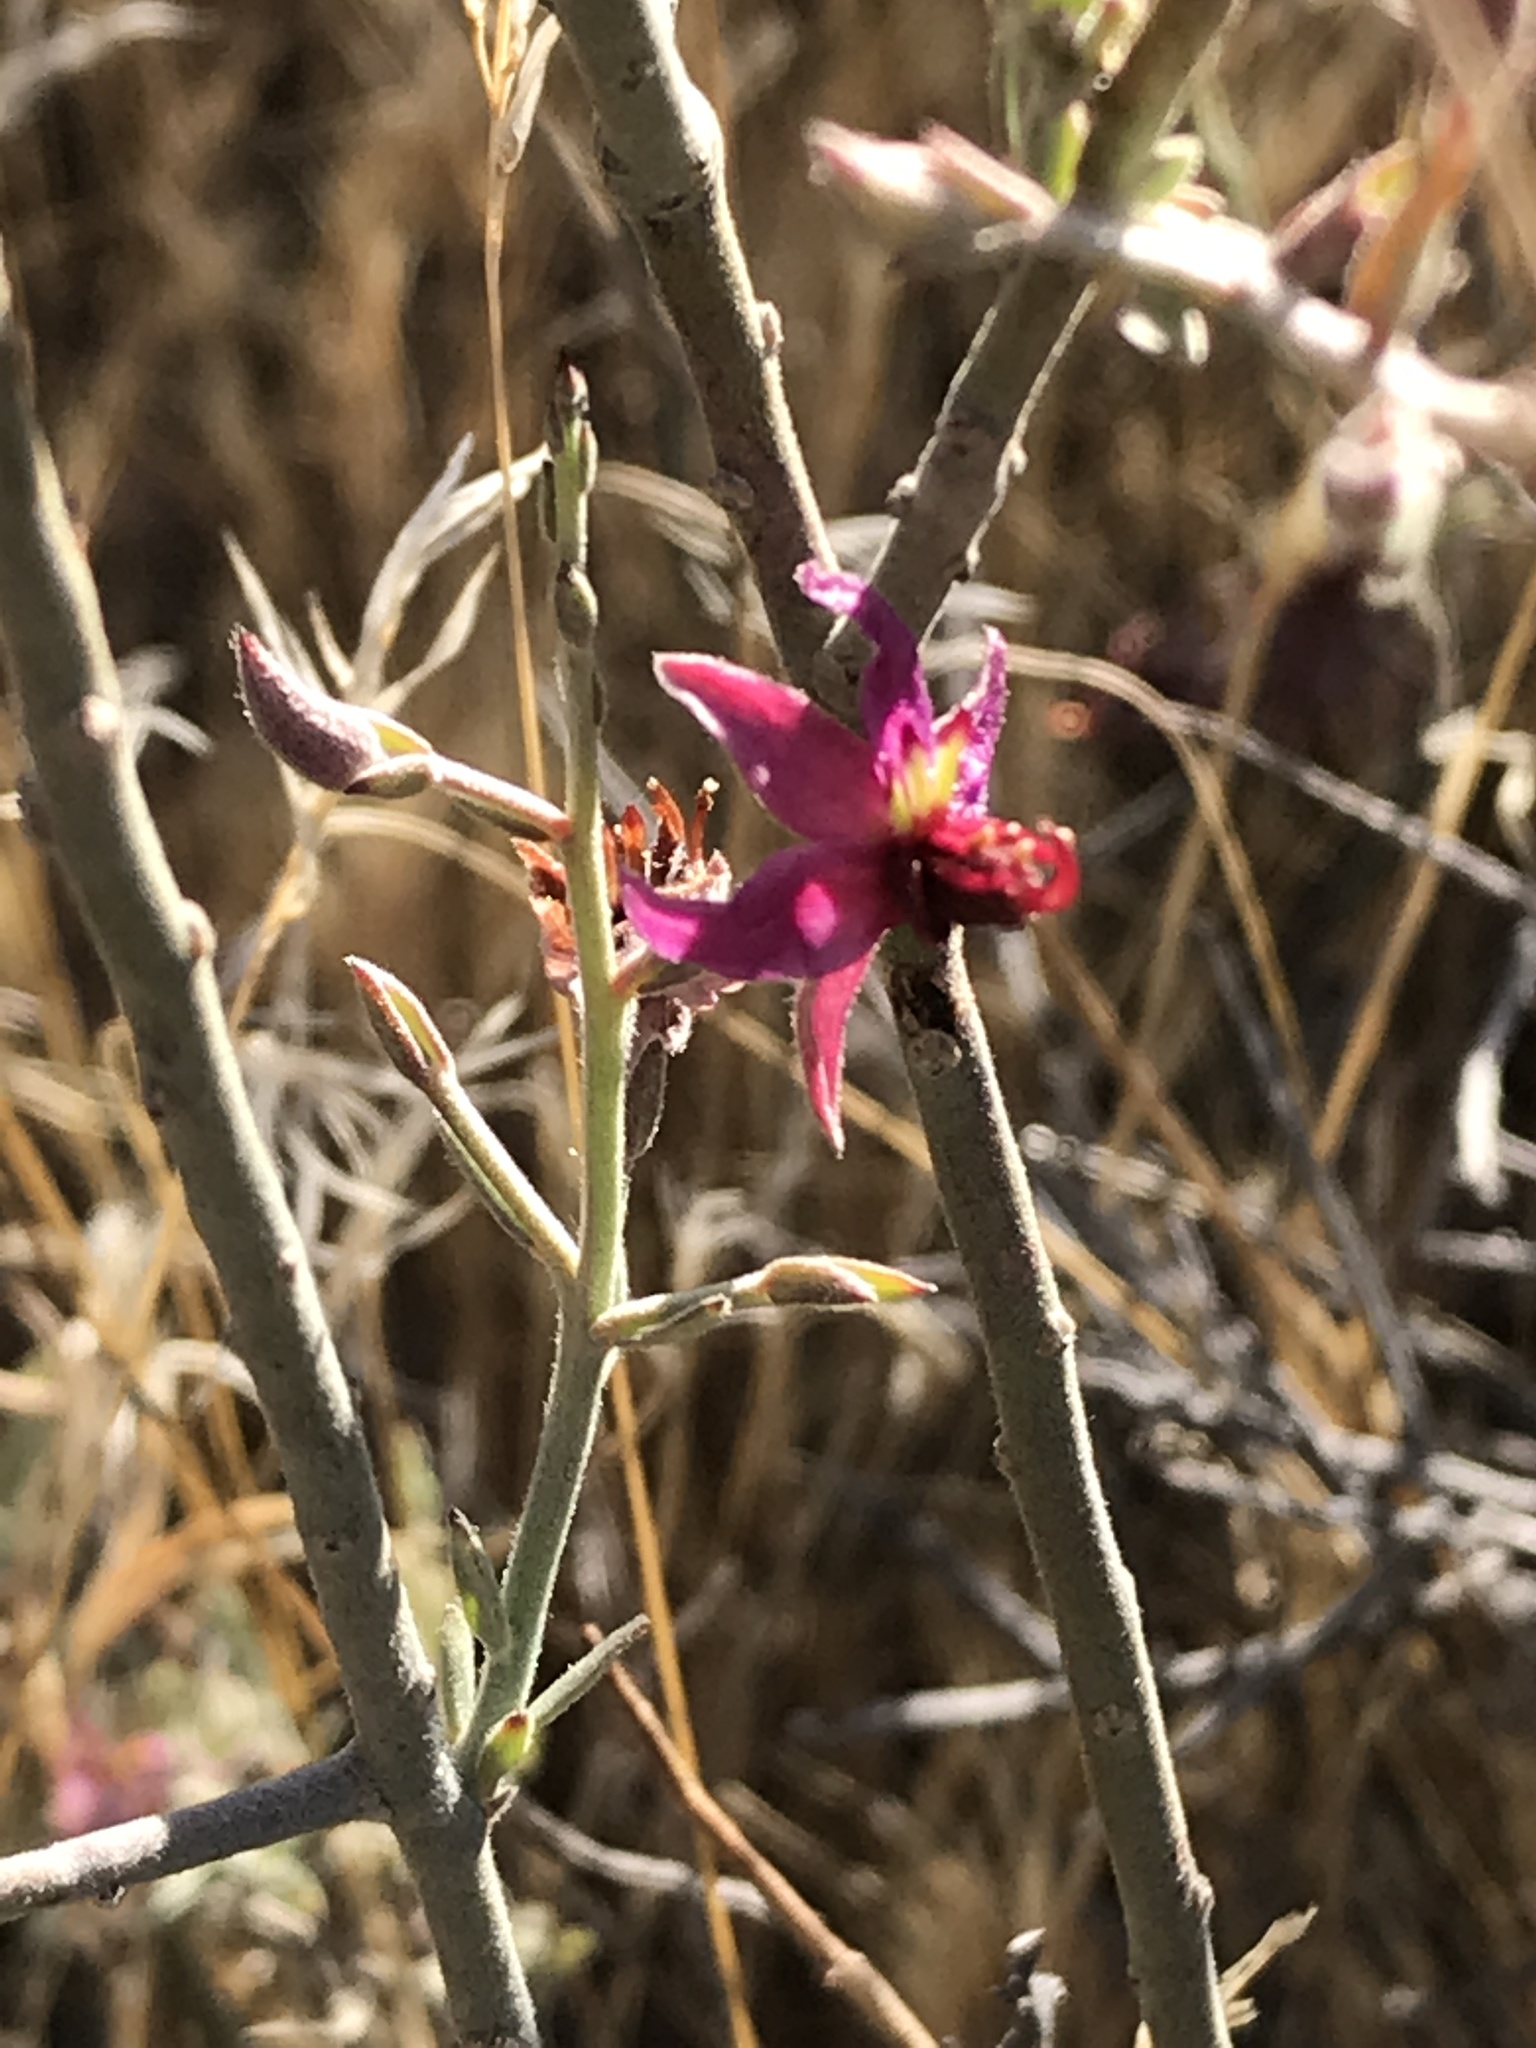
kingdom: Plantae
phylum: Tracheophyta
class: Magnoliopsida
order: Zygophyllales
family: Krameriaceae
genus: Krameria
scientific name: Krameria bicolor
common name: White ratany
